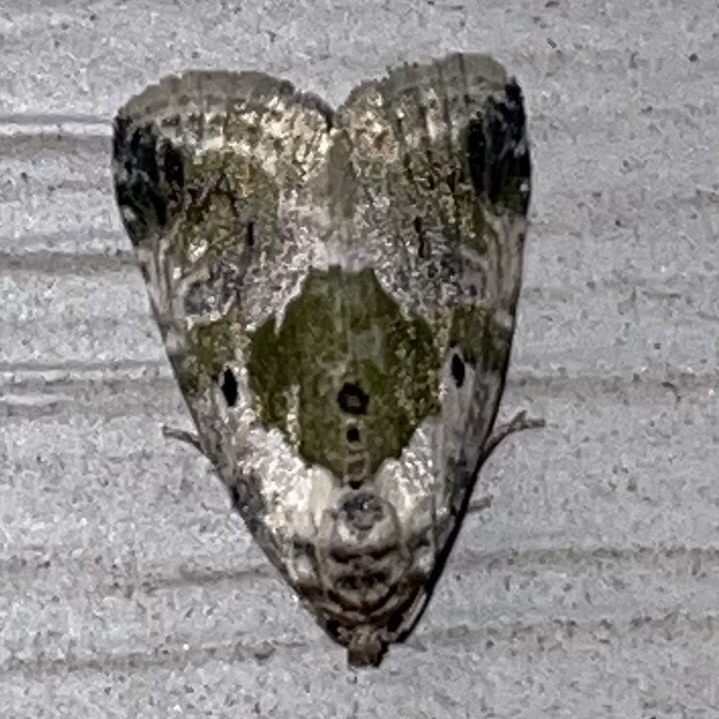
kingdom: Animalia
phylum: Arthropoda
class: Insecta
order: Lepidoptera
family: Noctuidae
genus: Maliattha
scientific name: Maliattha synochitis
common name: Black-dotted glyph
